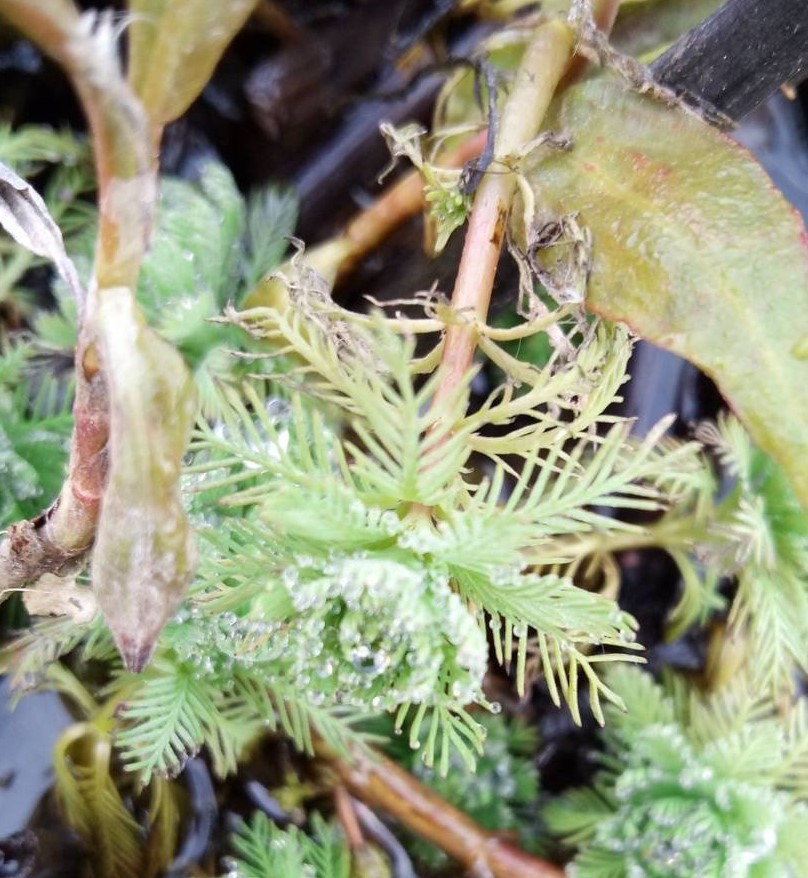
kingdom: Plantae
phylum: Tracheophyta
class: Magnoliopsida
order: Saxifragales
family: Haloragaceae
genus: Myriophyllum
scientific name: Myriophyllum aquaticum
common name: Parrot's feather
